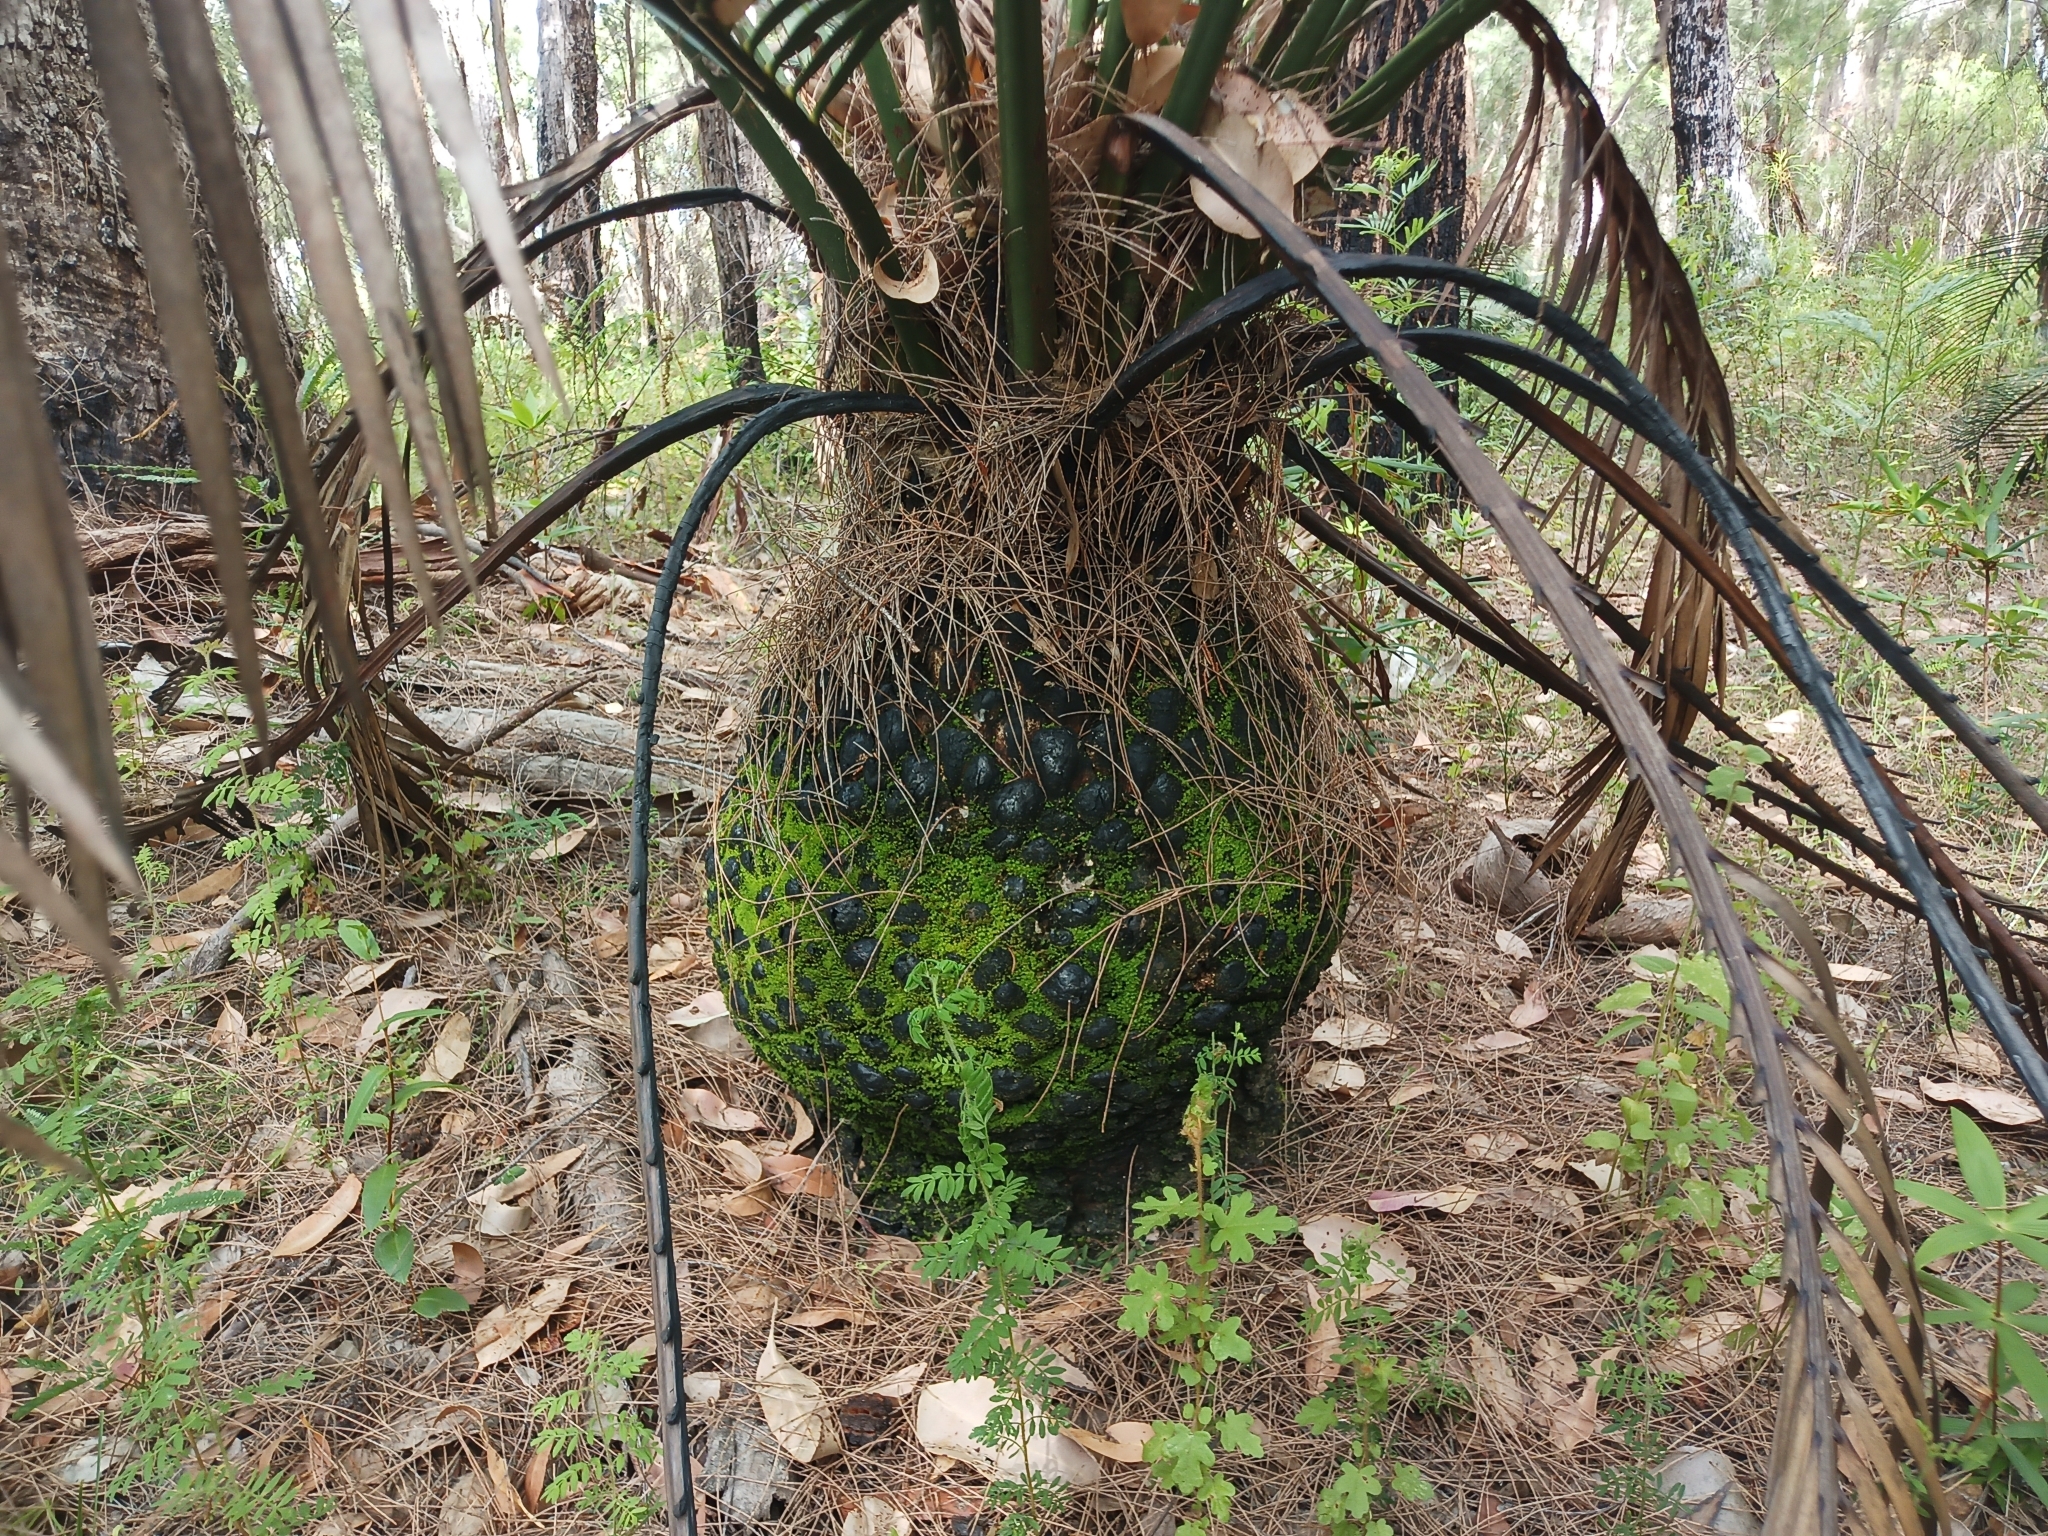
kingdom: Plantae
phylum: Bryophyta
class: Bryopsida
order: Pottiales
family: Pottiaceae
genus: Calymperastrum
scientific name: Calymperastrum latifolium
